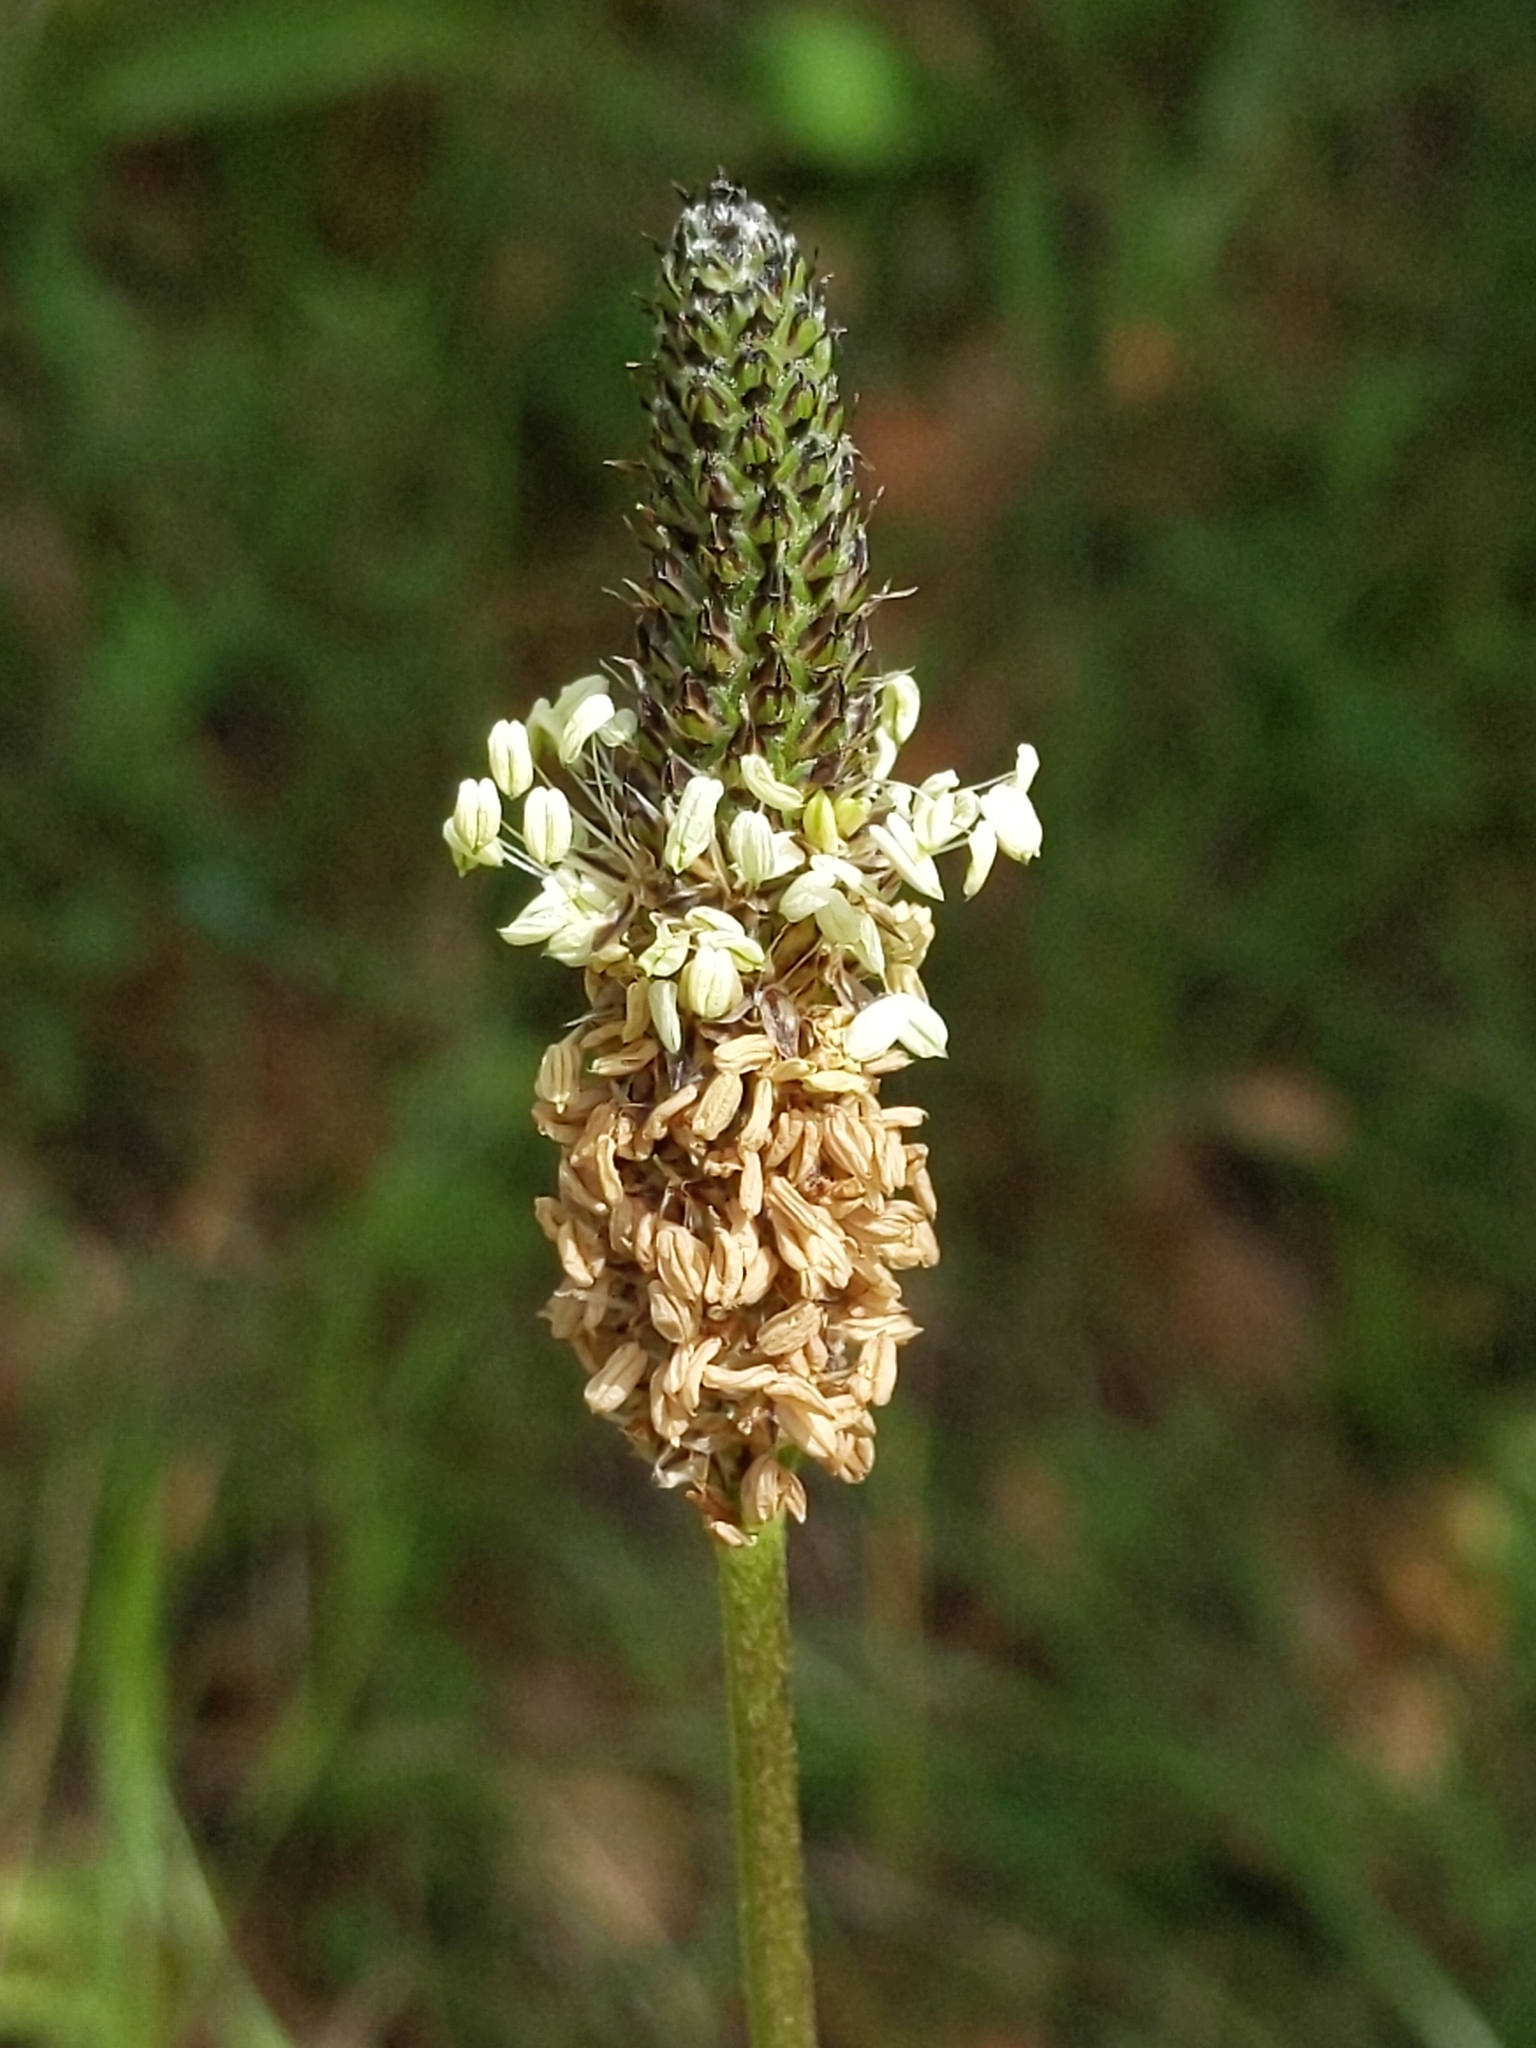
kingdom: Plantae
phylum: Tracheophyta
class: Magnoliopsida
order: Lamiales
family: Plantaginaceae
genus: Plantago
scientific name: Plantago lanceolata
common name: Ribwort plantain
